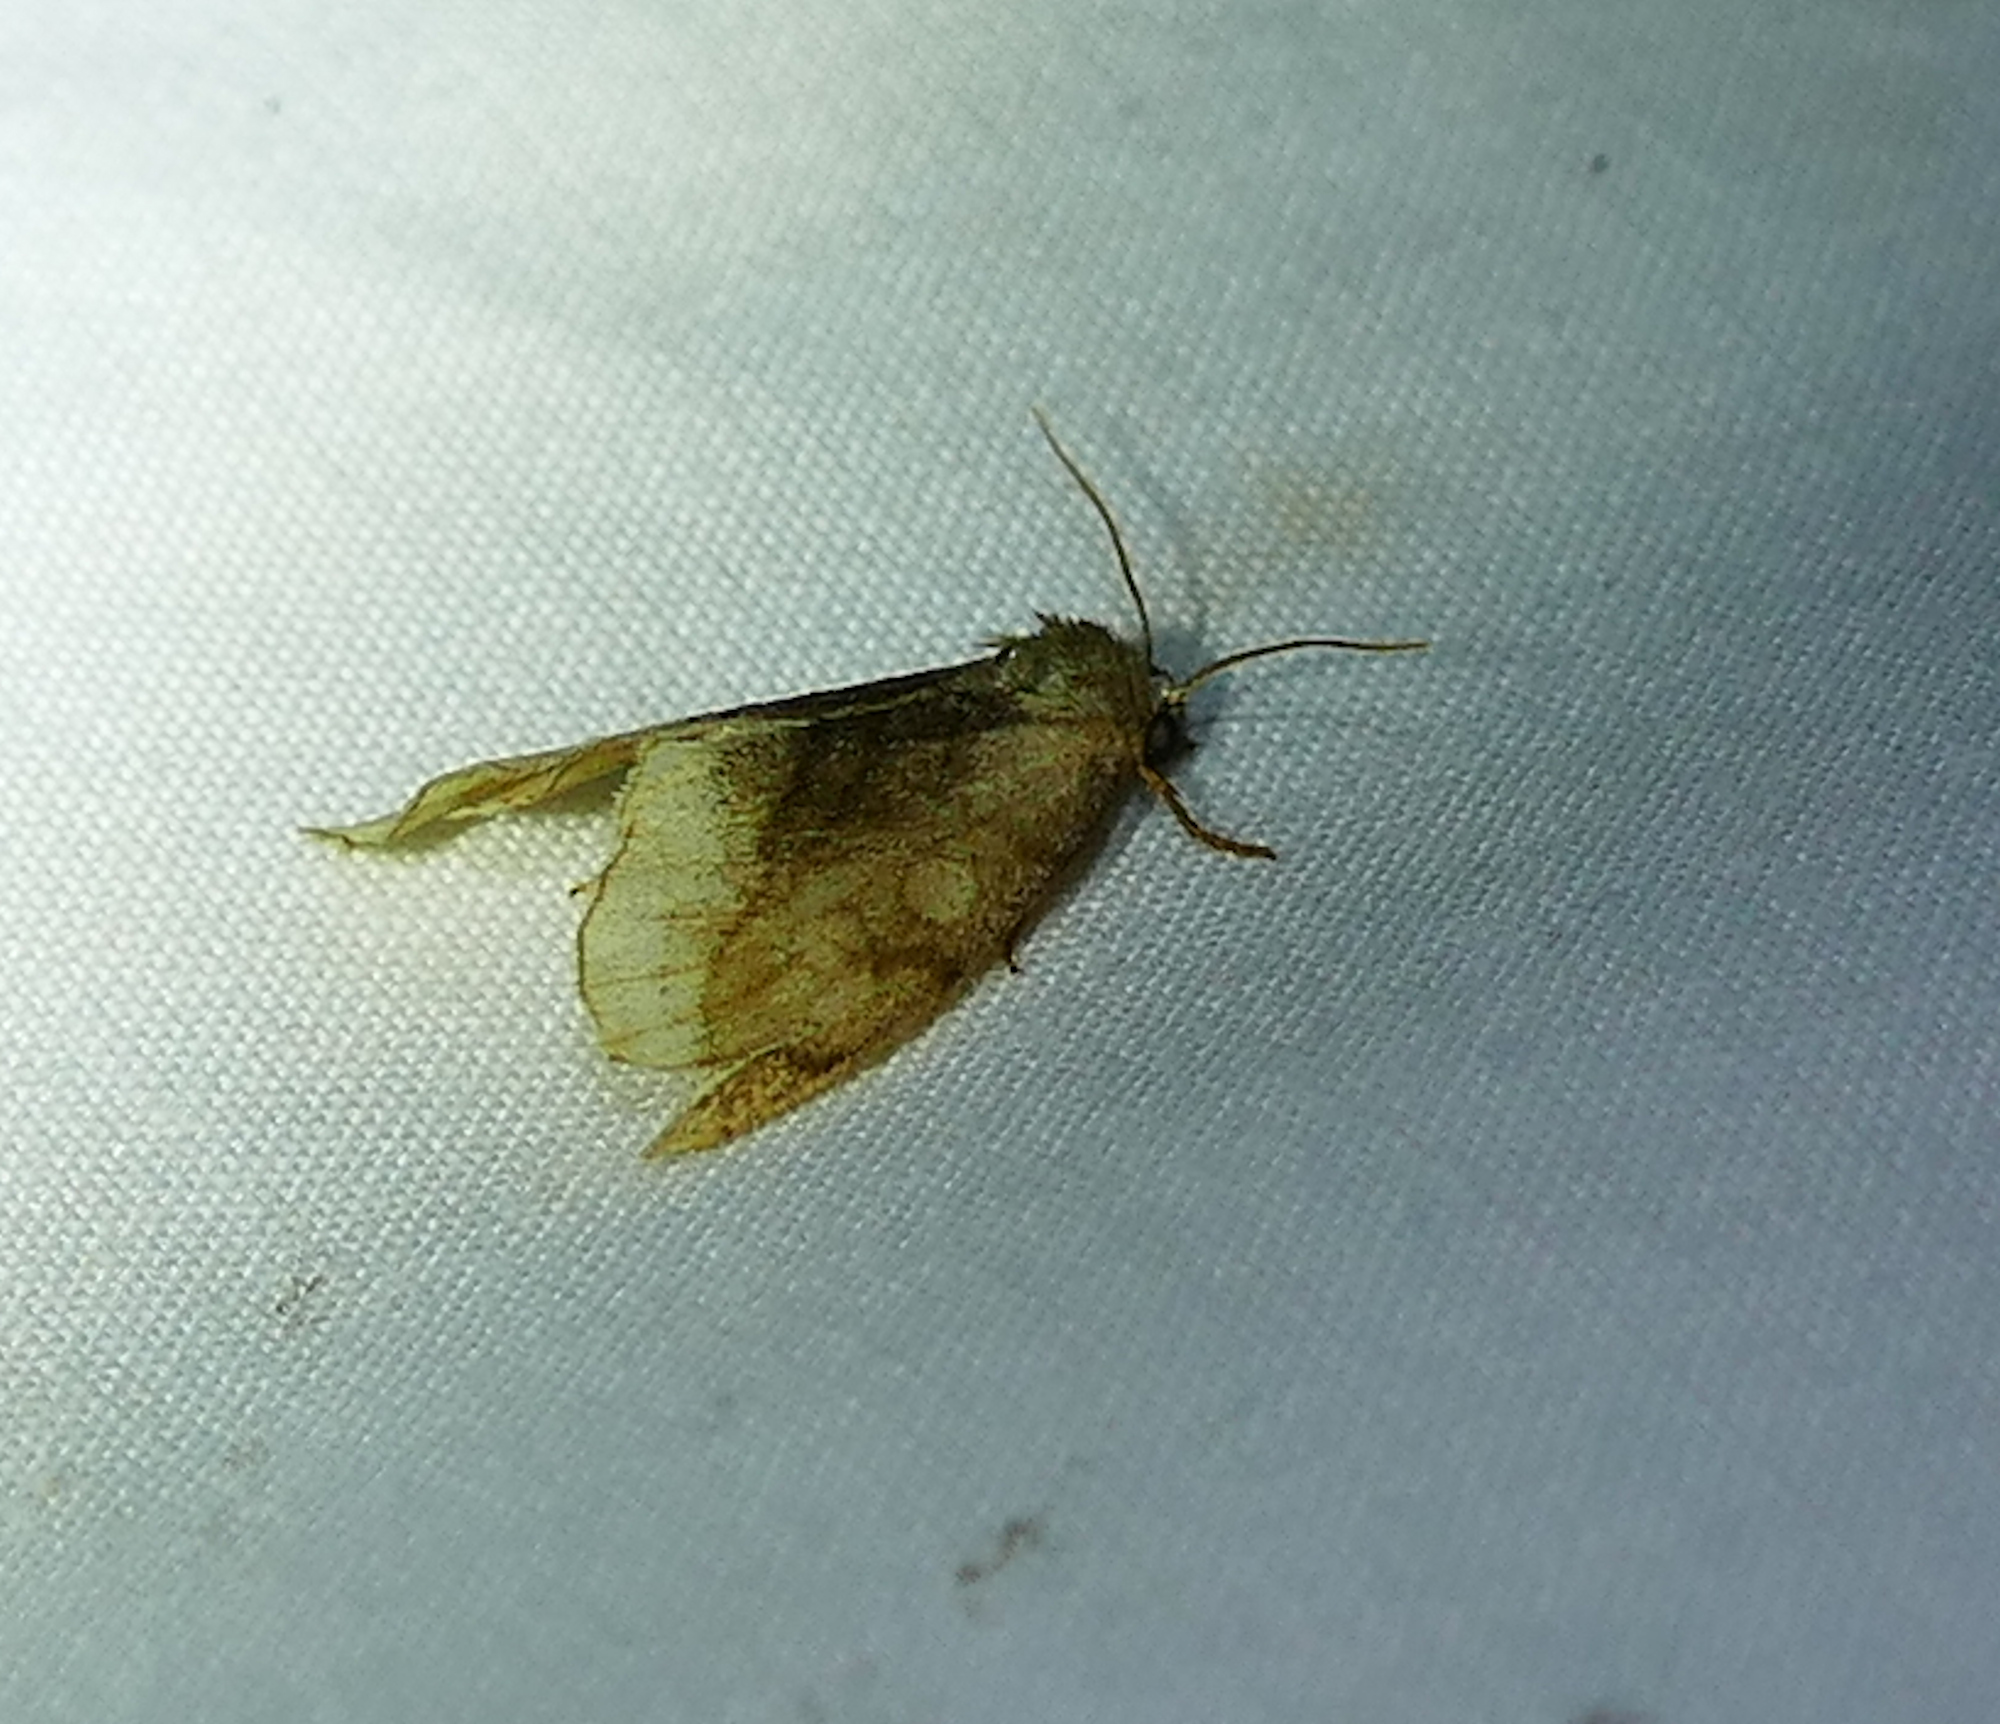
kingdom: Animalia
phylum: Arthropoda
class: Insecta
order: Lepidoptera
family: Noctuidae
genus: Plagiomimicus
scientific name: Plagiomimicus ochoa
